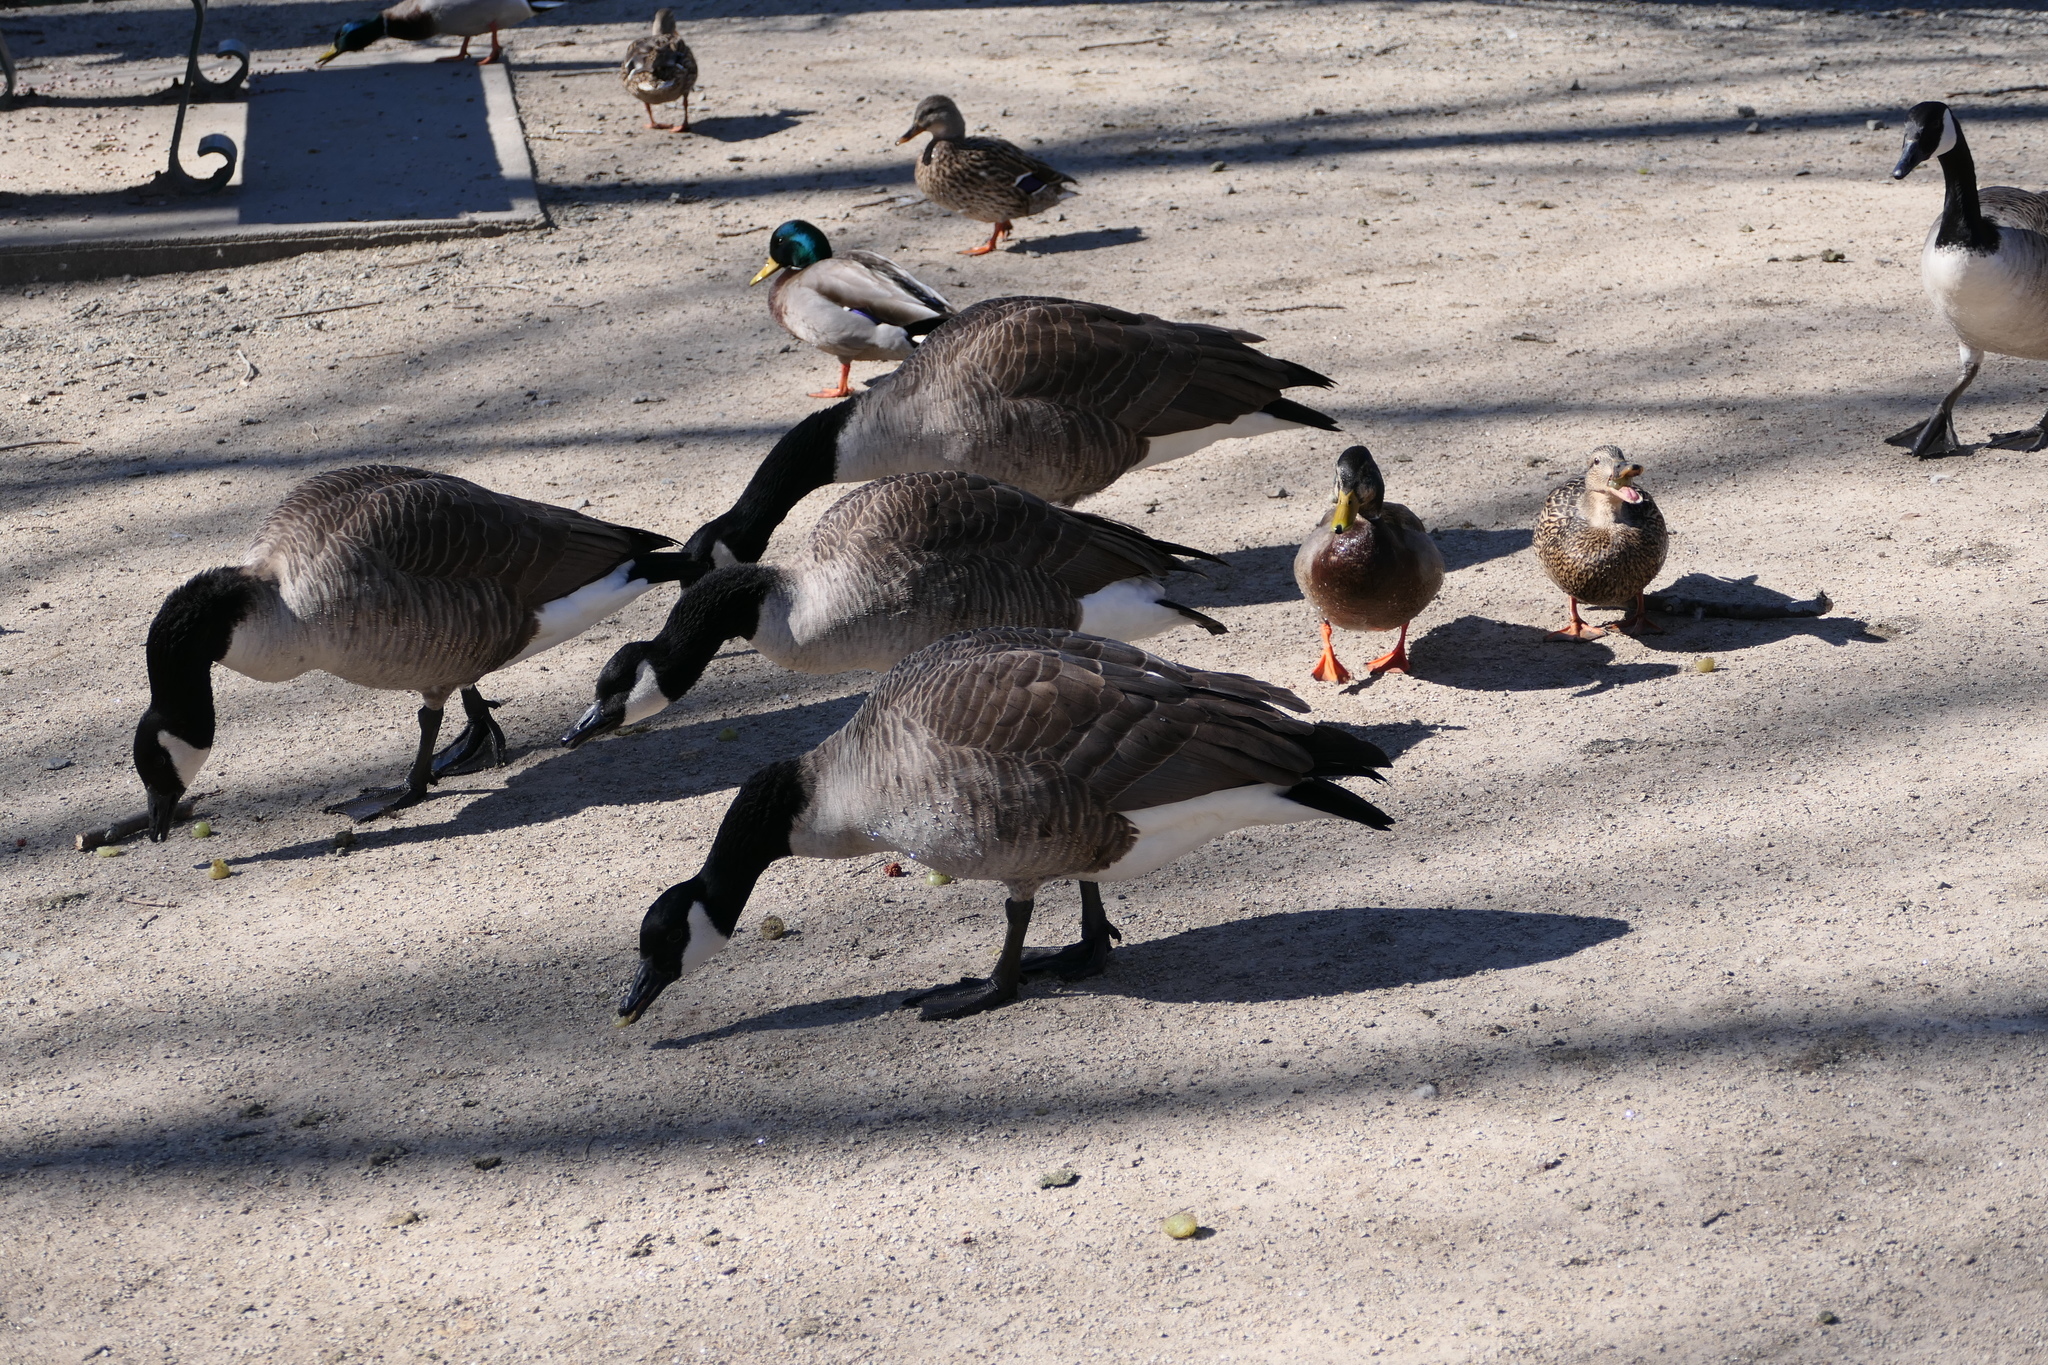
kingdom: Animalia
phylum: Chordata
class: Aves
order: Anseriformes
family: Anatidae
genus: Anas
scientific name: Anas platyrhynchos
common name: Mallard
